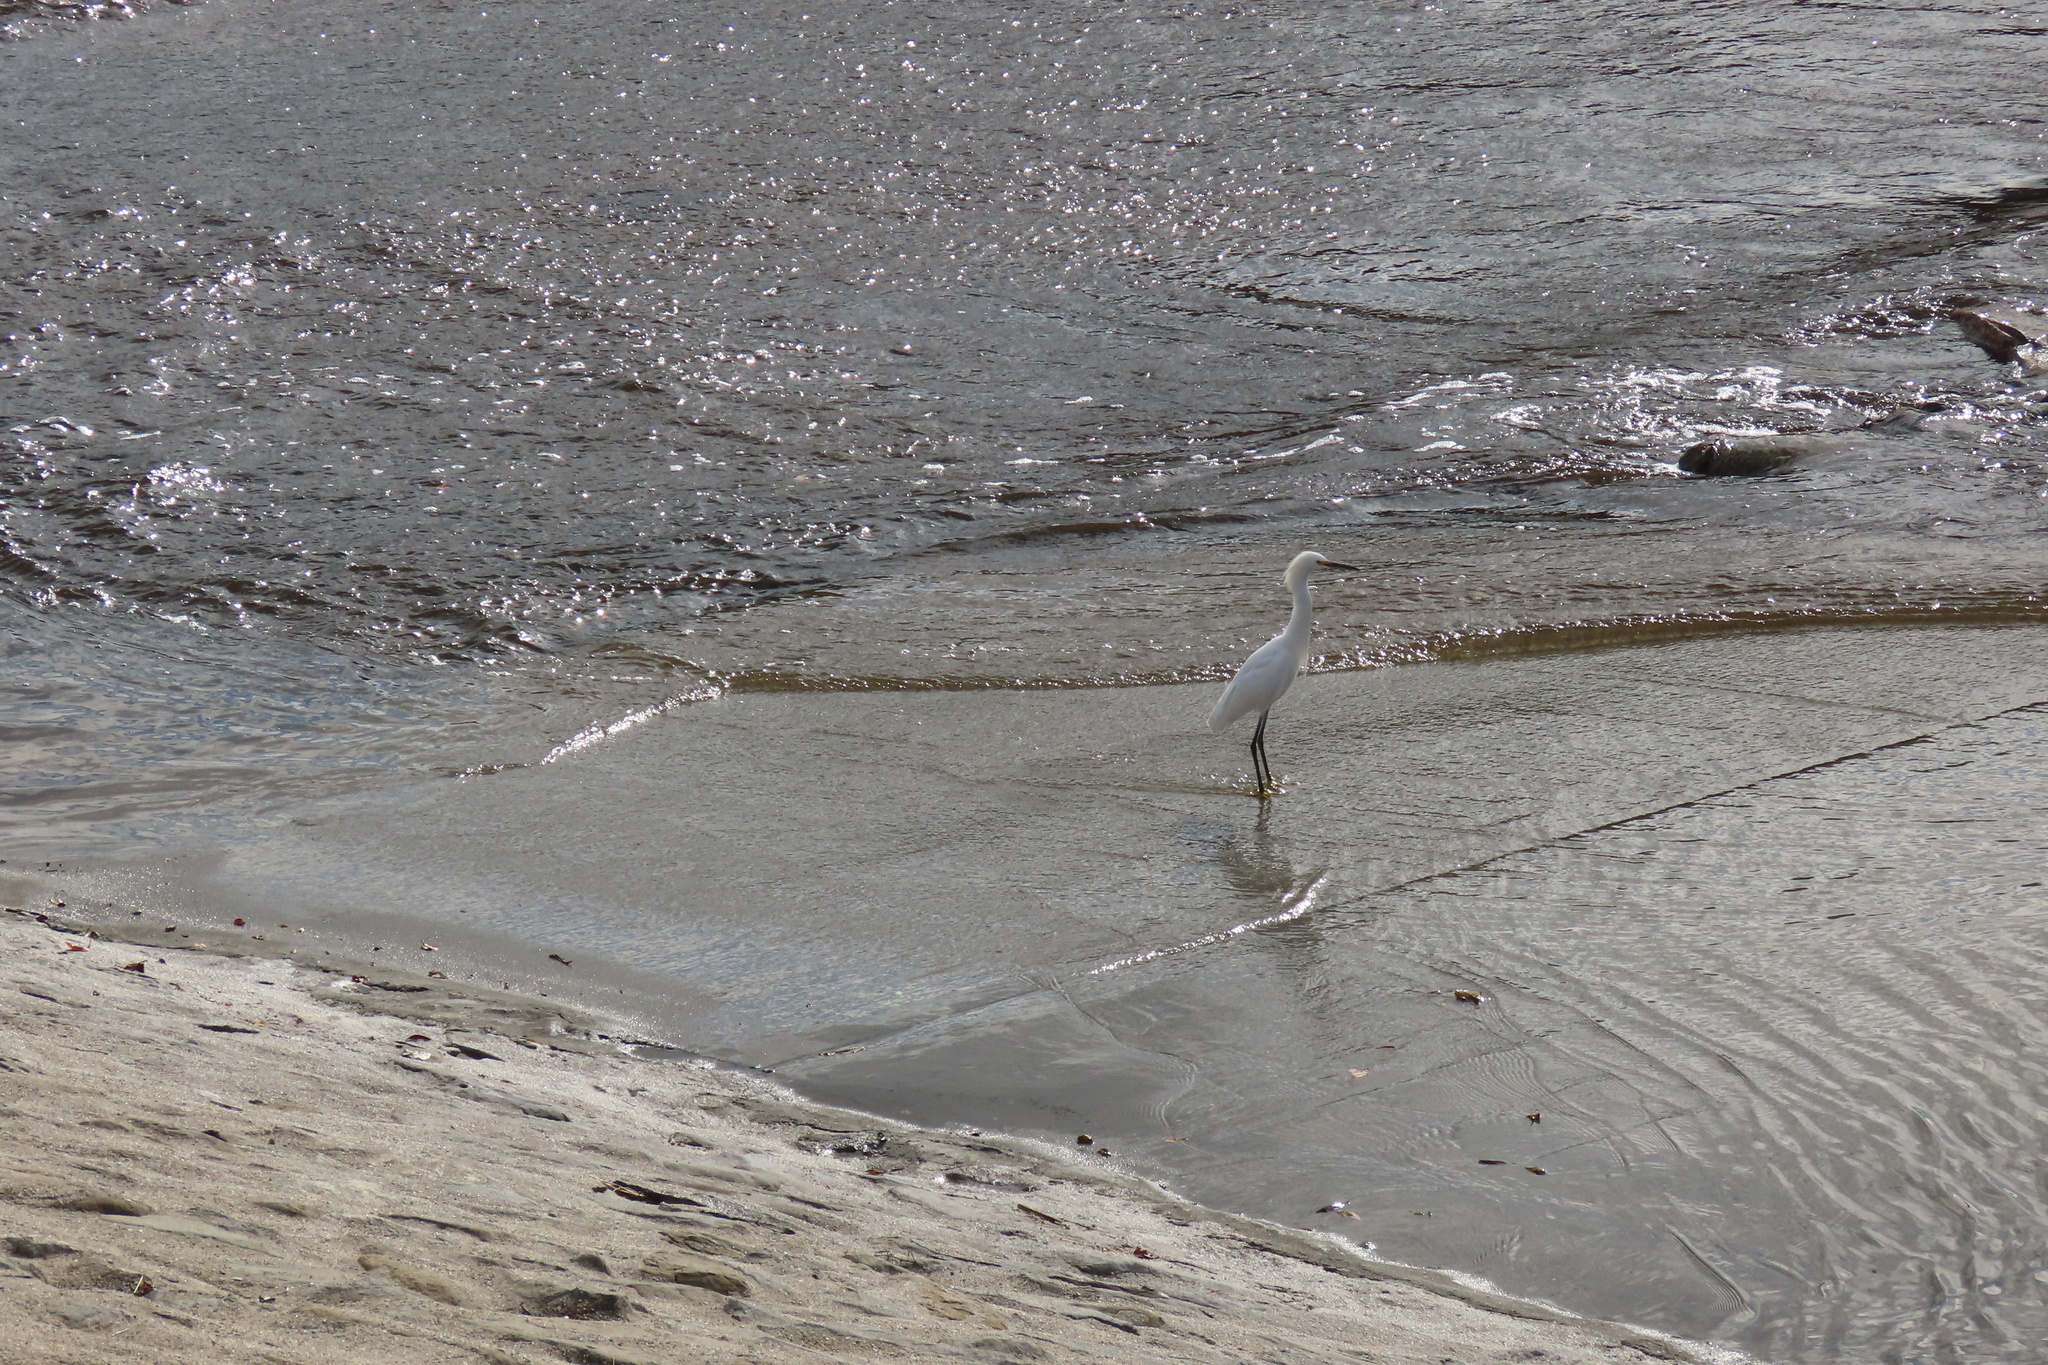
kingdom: Animalia
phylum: Chordata
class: Aves
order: Pelecaniformes
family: Ardeidae
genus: Egretta
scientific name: Egretta thula
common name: Snowy egret
